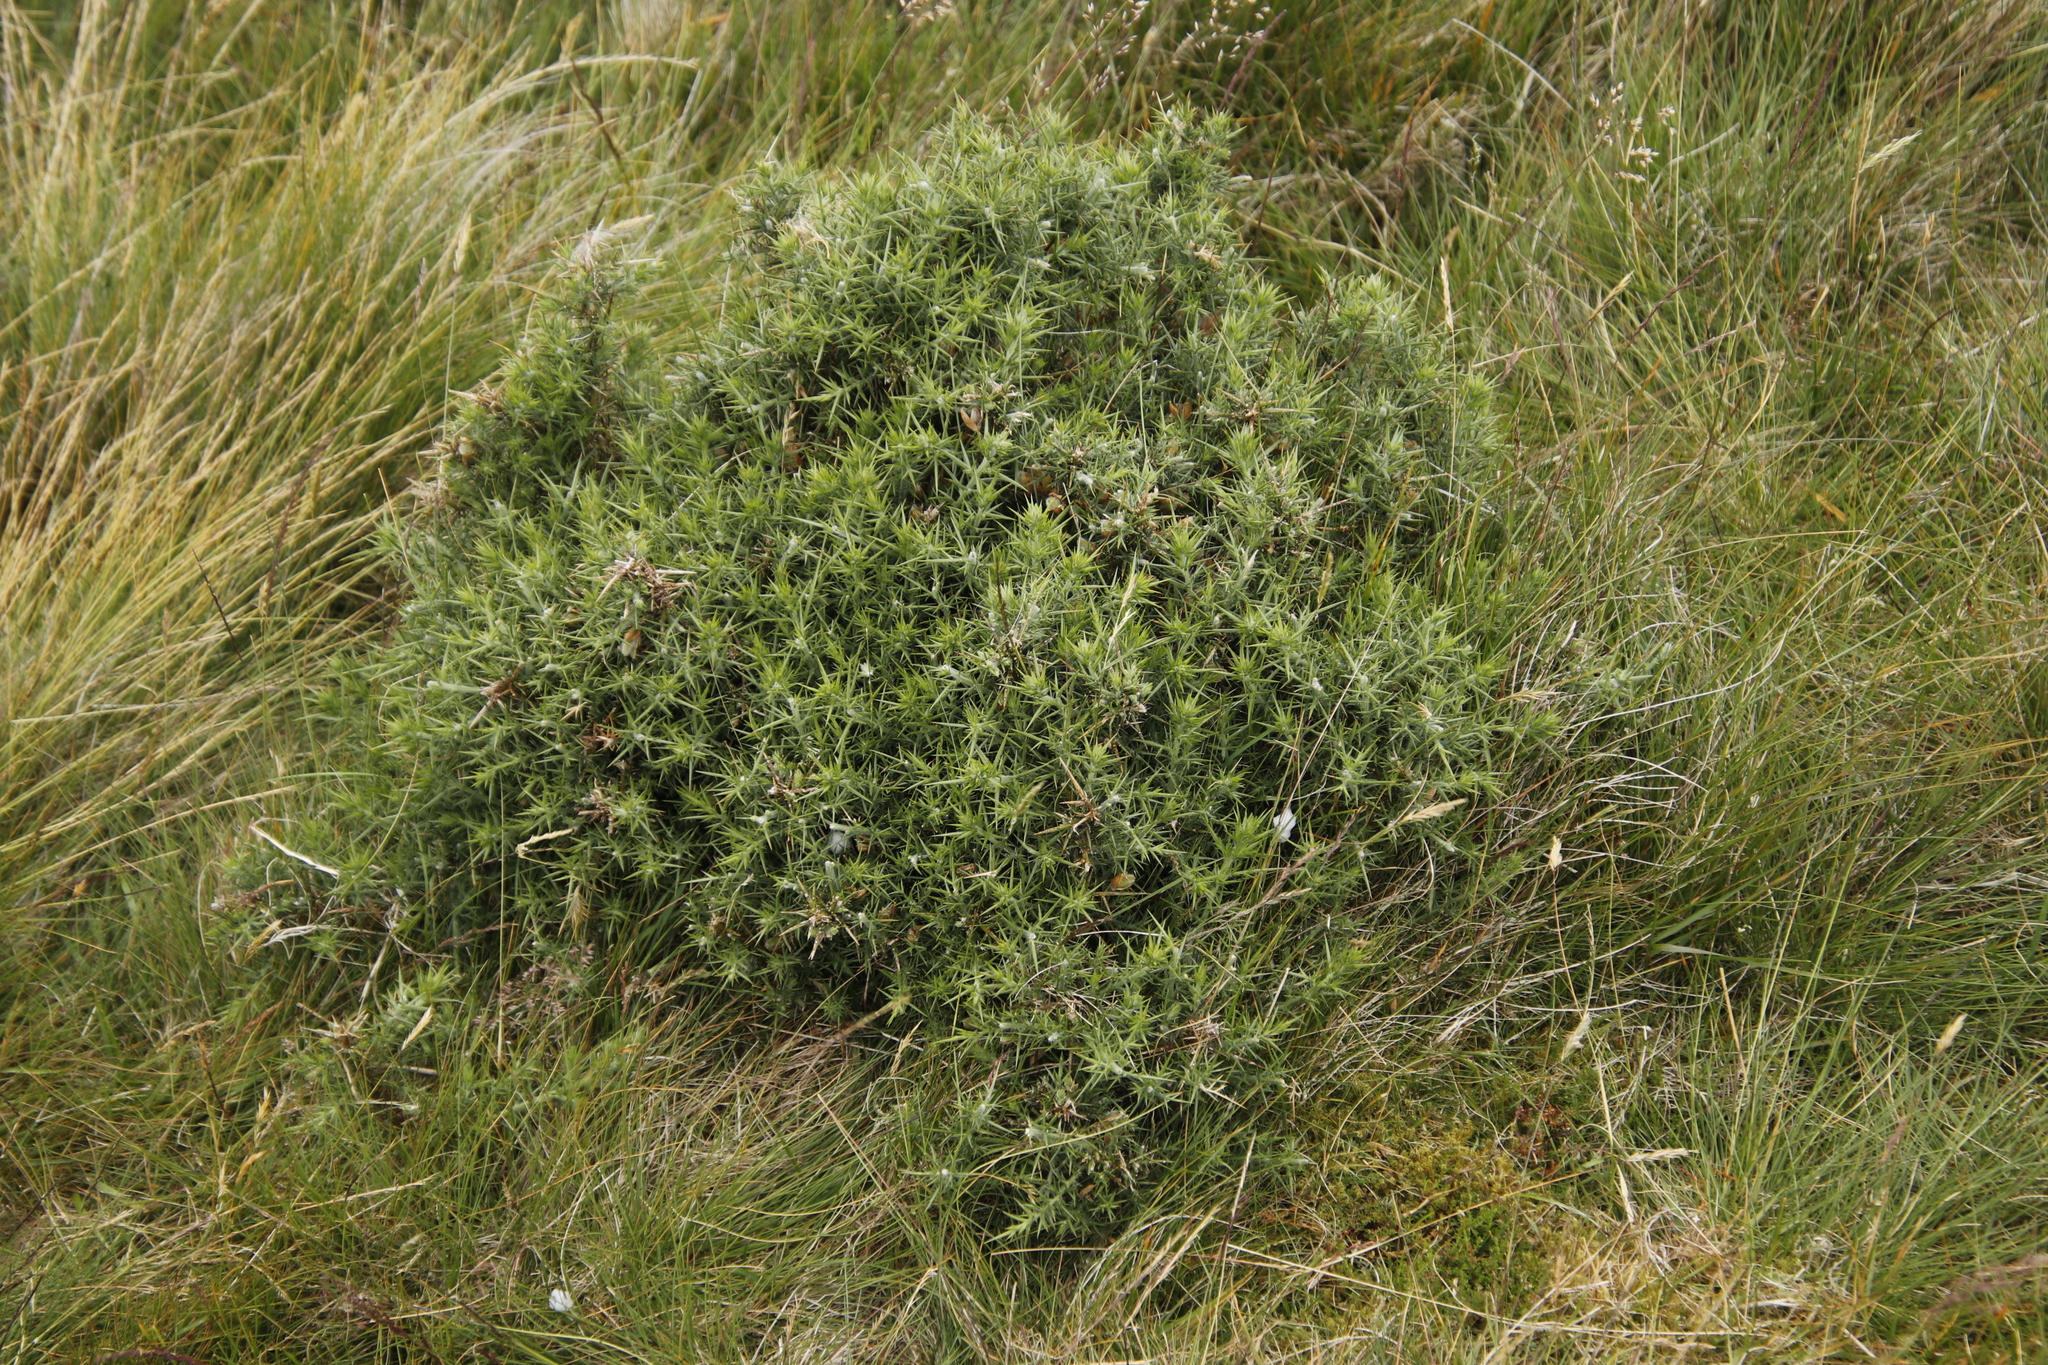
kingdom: Plantae
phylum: Tracheophyta
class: Magnoliopsida
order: Fabales
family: Fabaceae
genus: Ulex
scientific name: Ulex europaeus
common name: Common gorse
